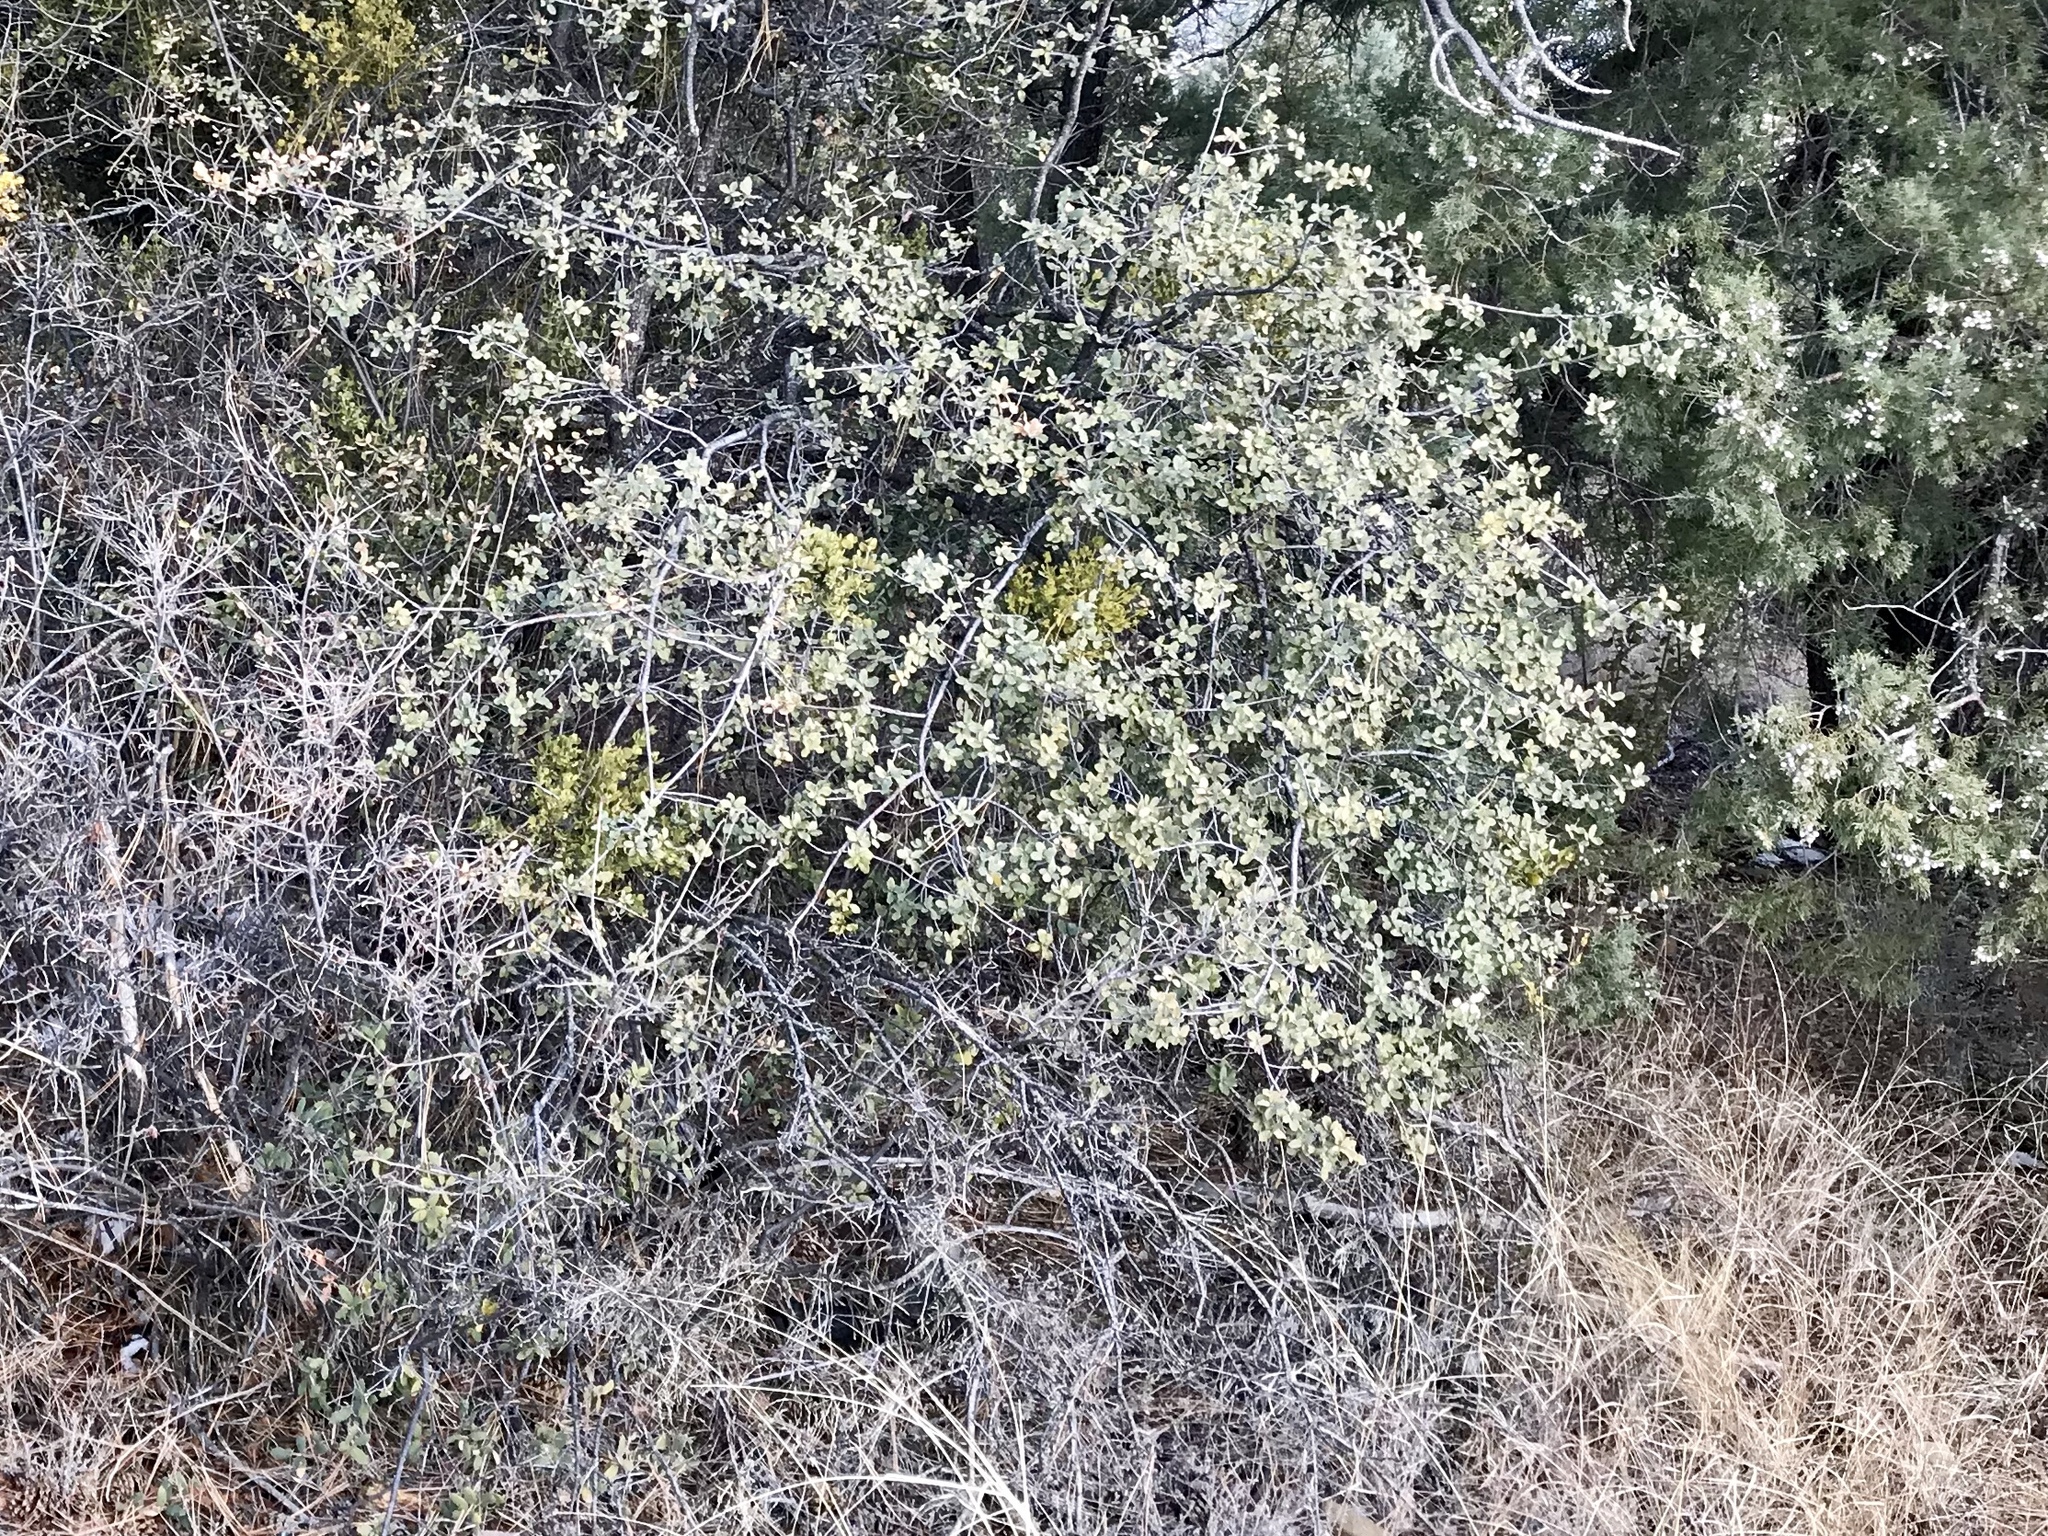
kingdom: Plantae
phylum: Tracheophyta
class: Magnoliopsida
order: Fagales
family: Fagaceae
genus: Quercus
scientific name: Quercus turbinella
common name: Sonoran scrub oak
